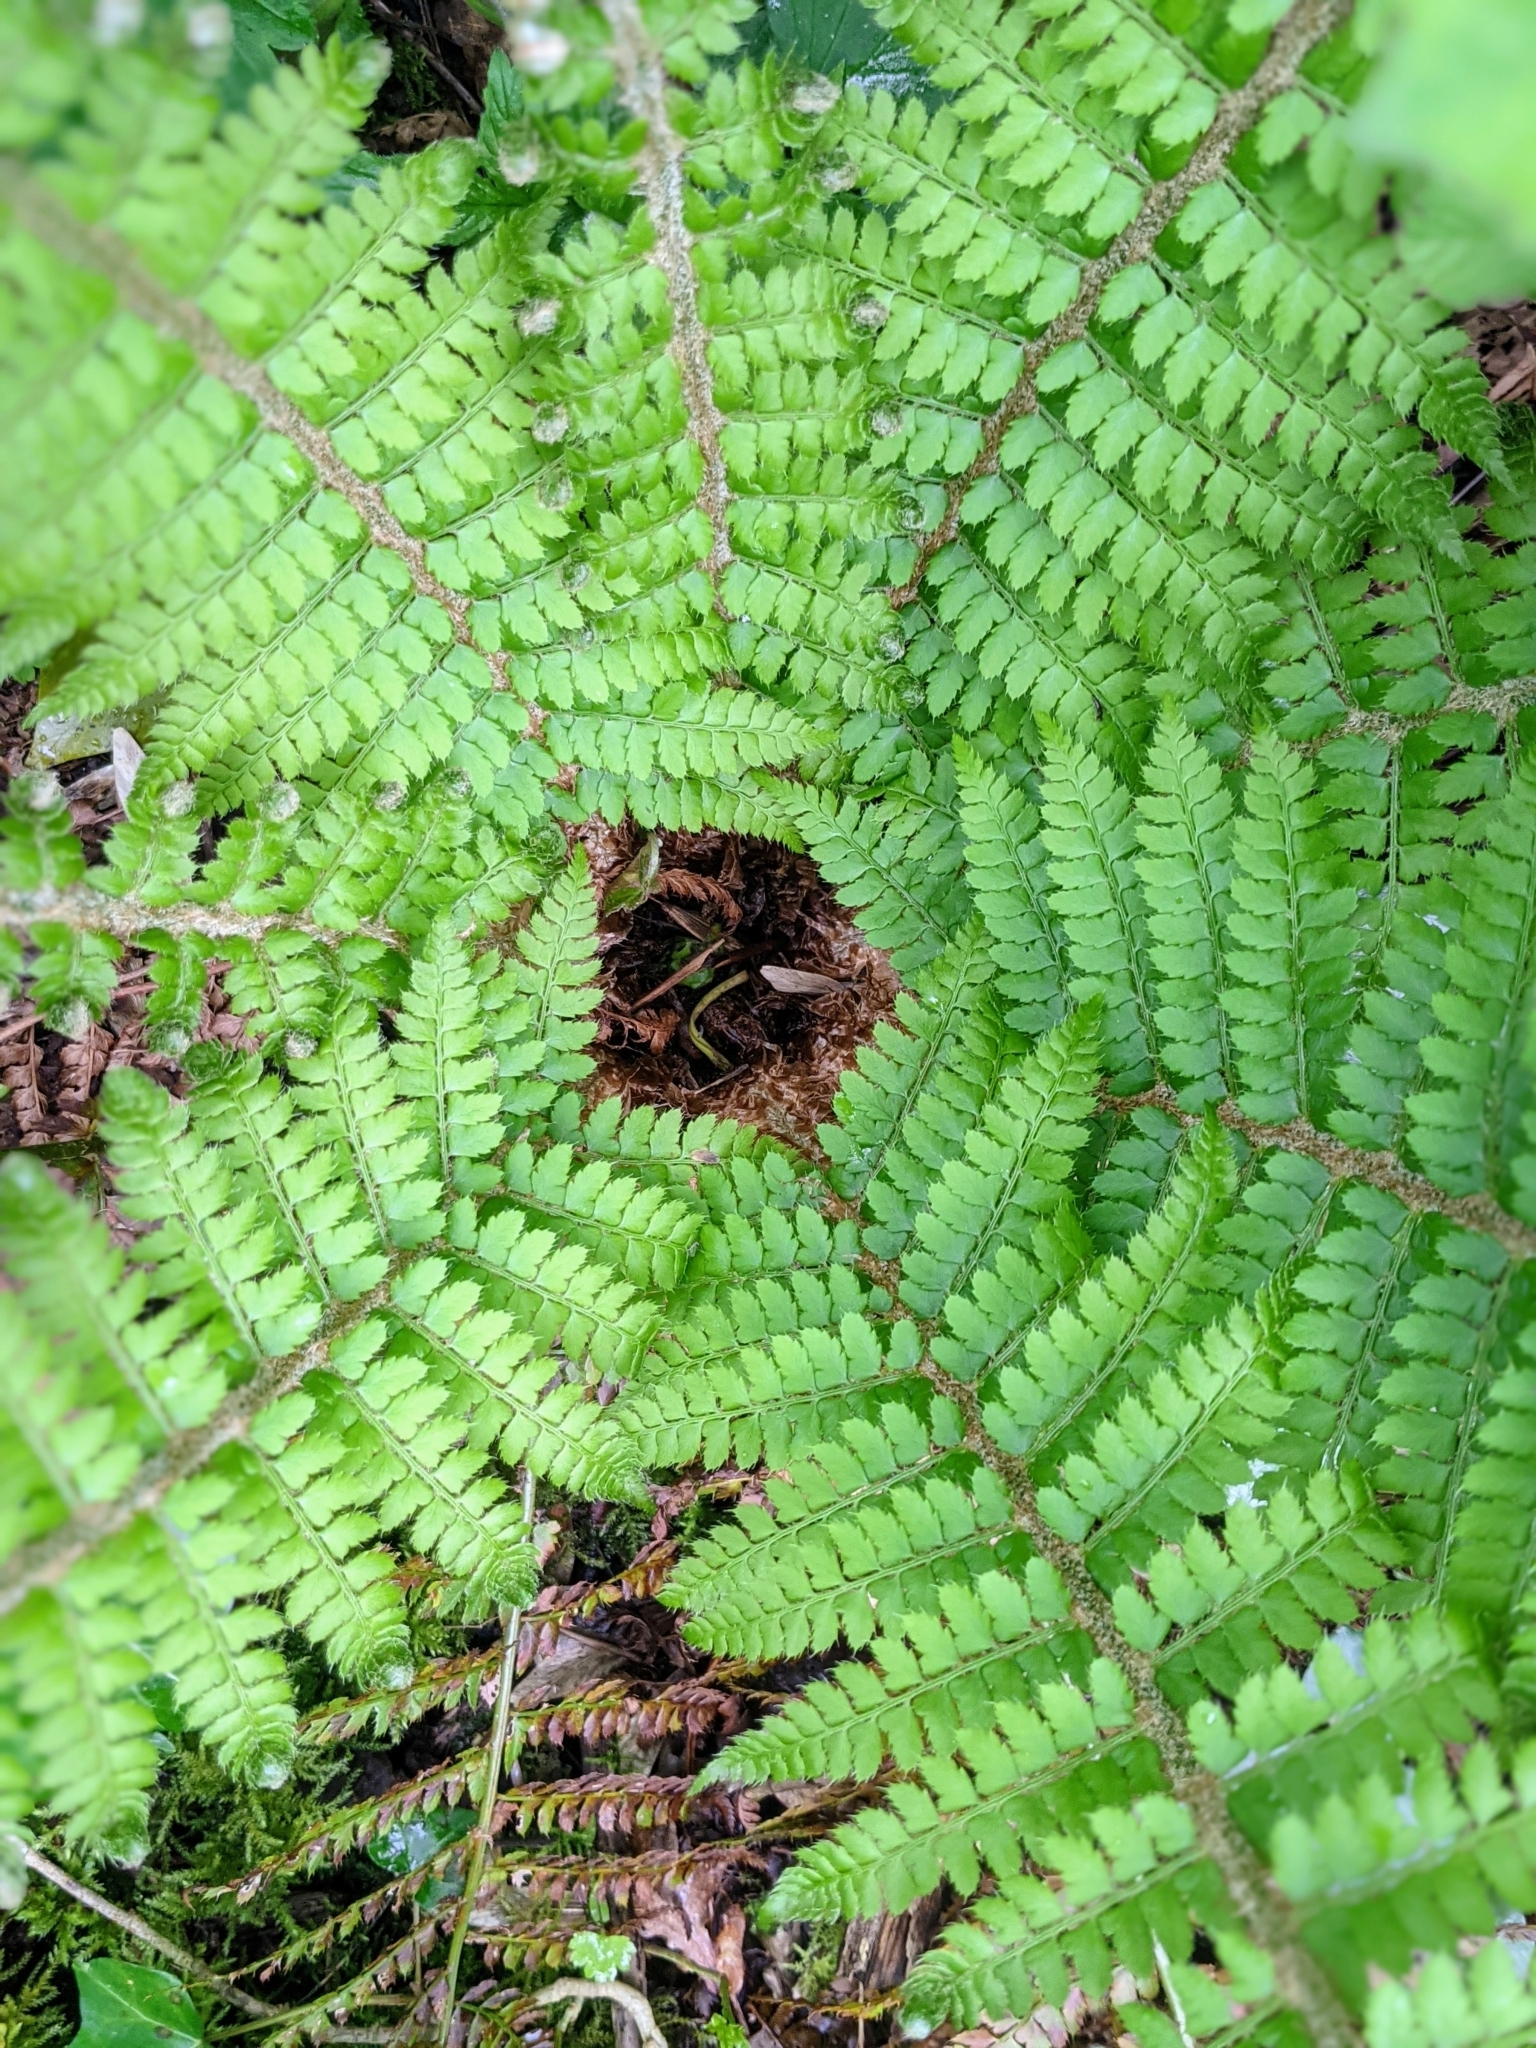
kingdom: Plantae
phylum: Tracheophyta
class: Polypodiopsida
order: Polypodiales
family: Dryopteridaceae
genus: Polystichum
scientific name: Polystichum setiferum
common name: Soft shield-fern
